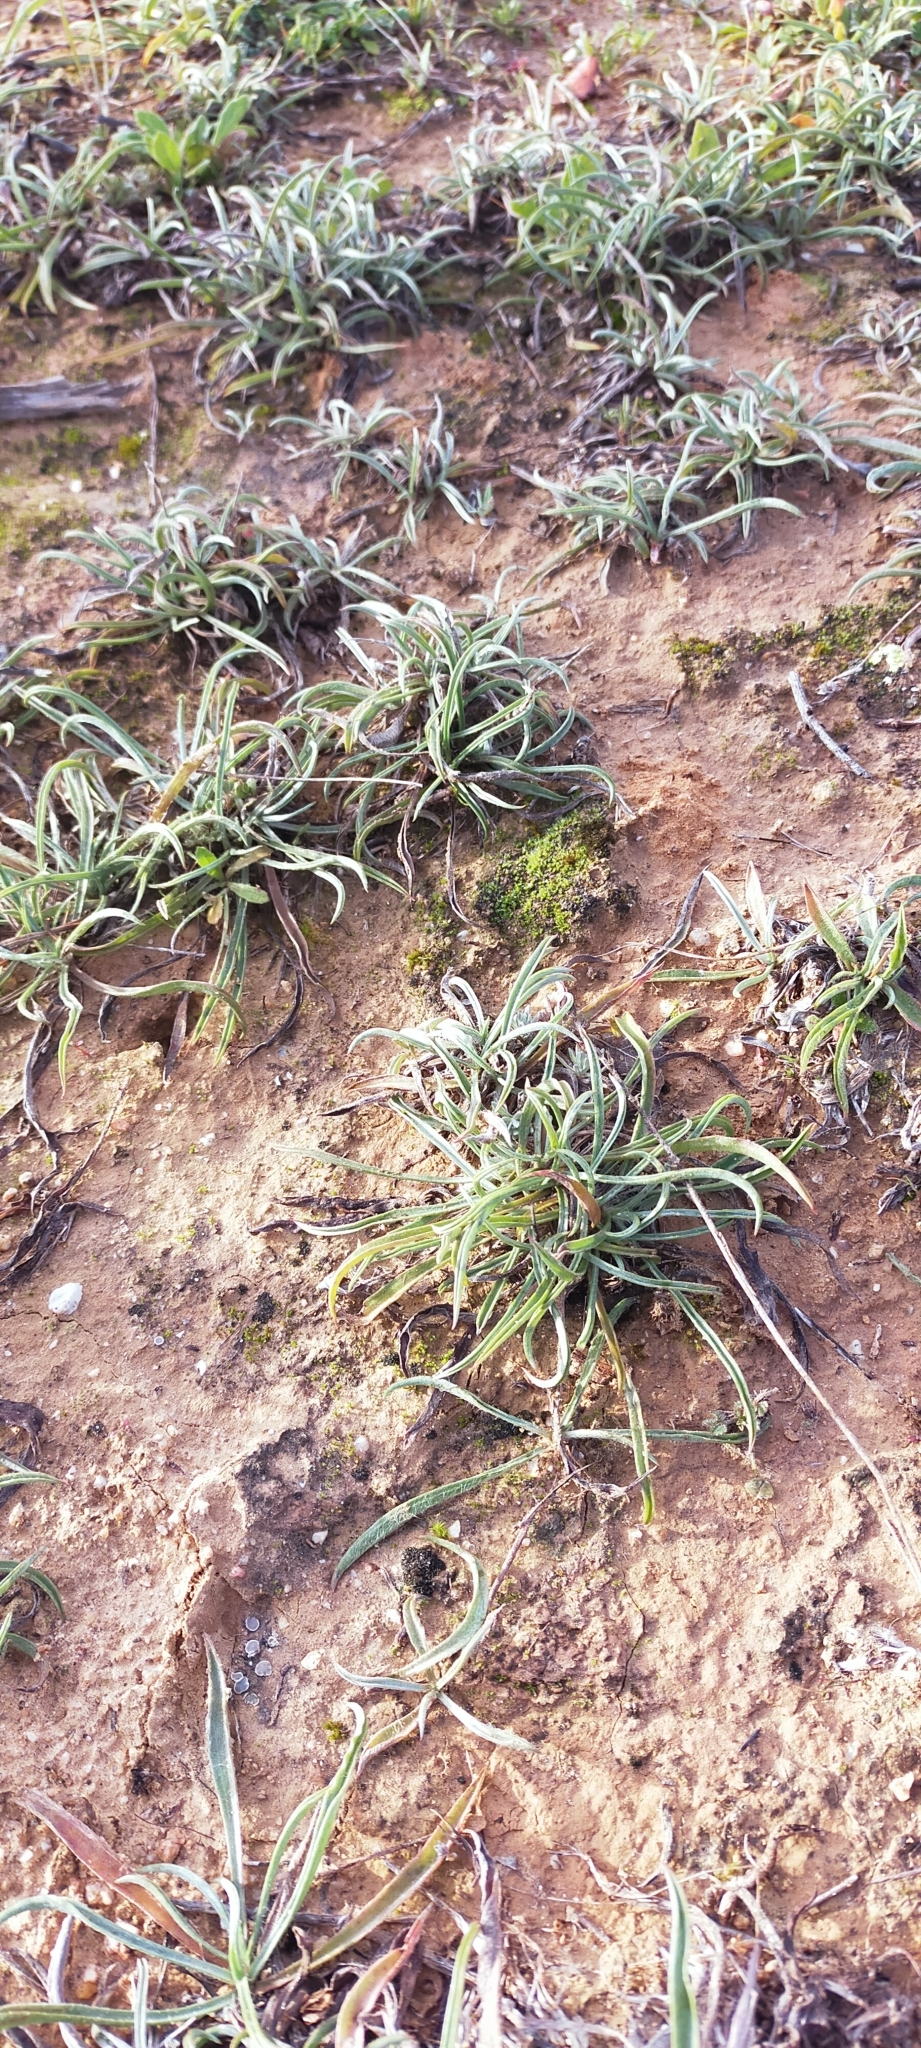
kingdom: Plantae
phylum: Tracheophyta
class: Magnoliopsida
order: Lamiales
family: Plantaginaceae
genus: Plantago
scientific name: Plantago albicans
